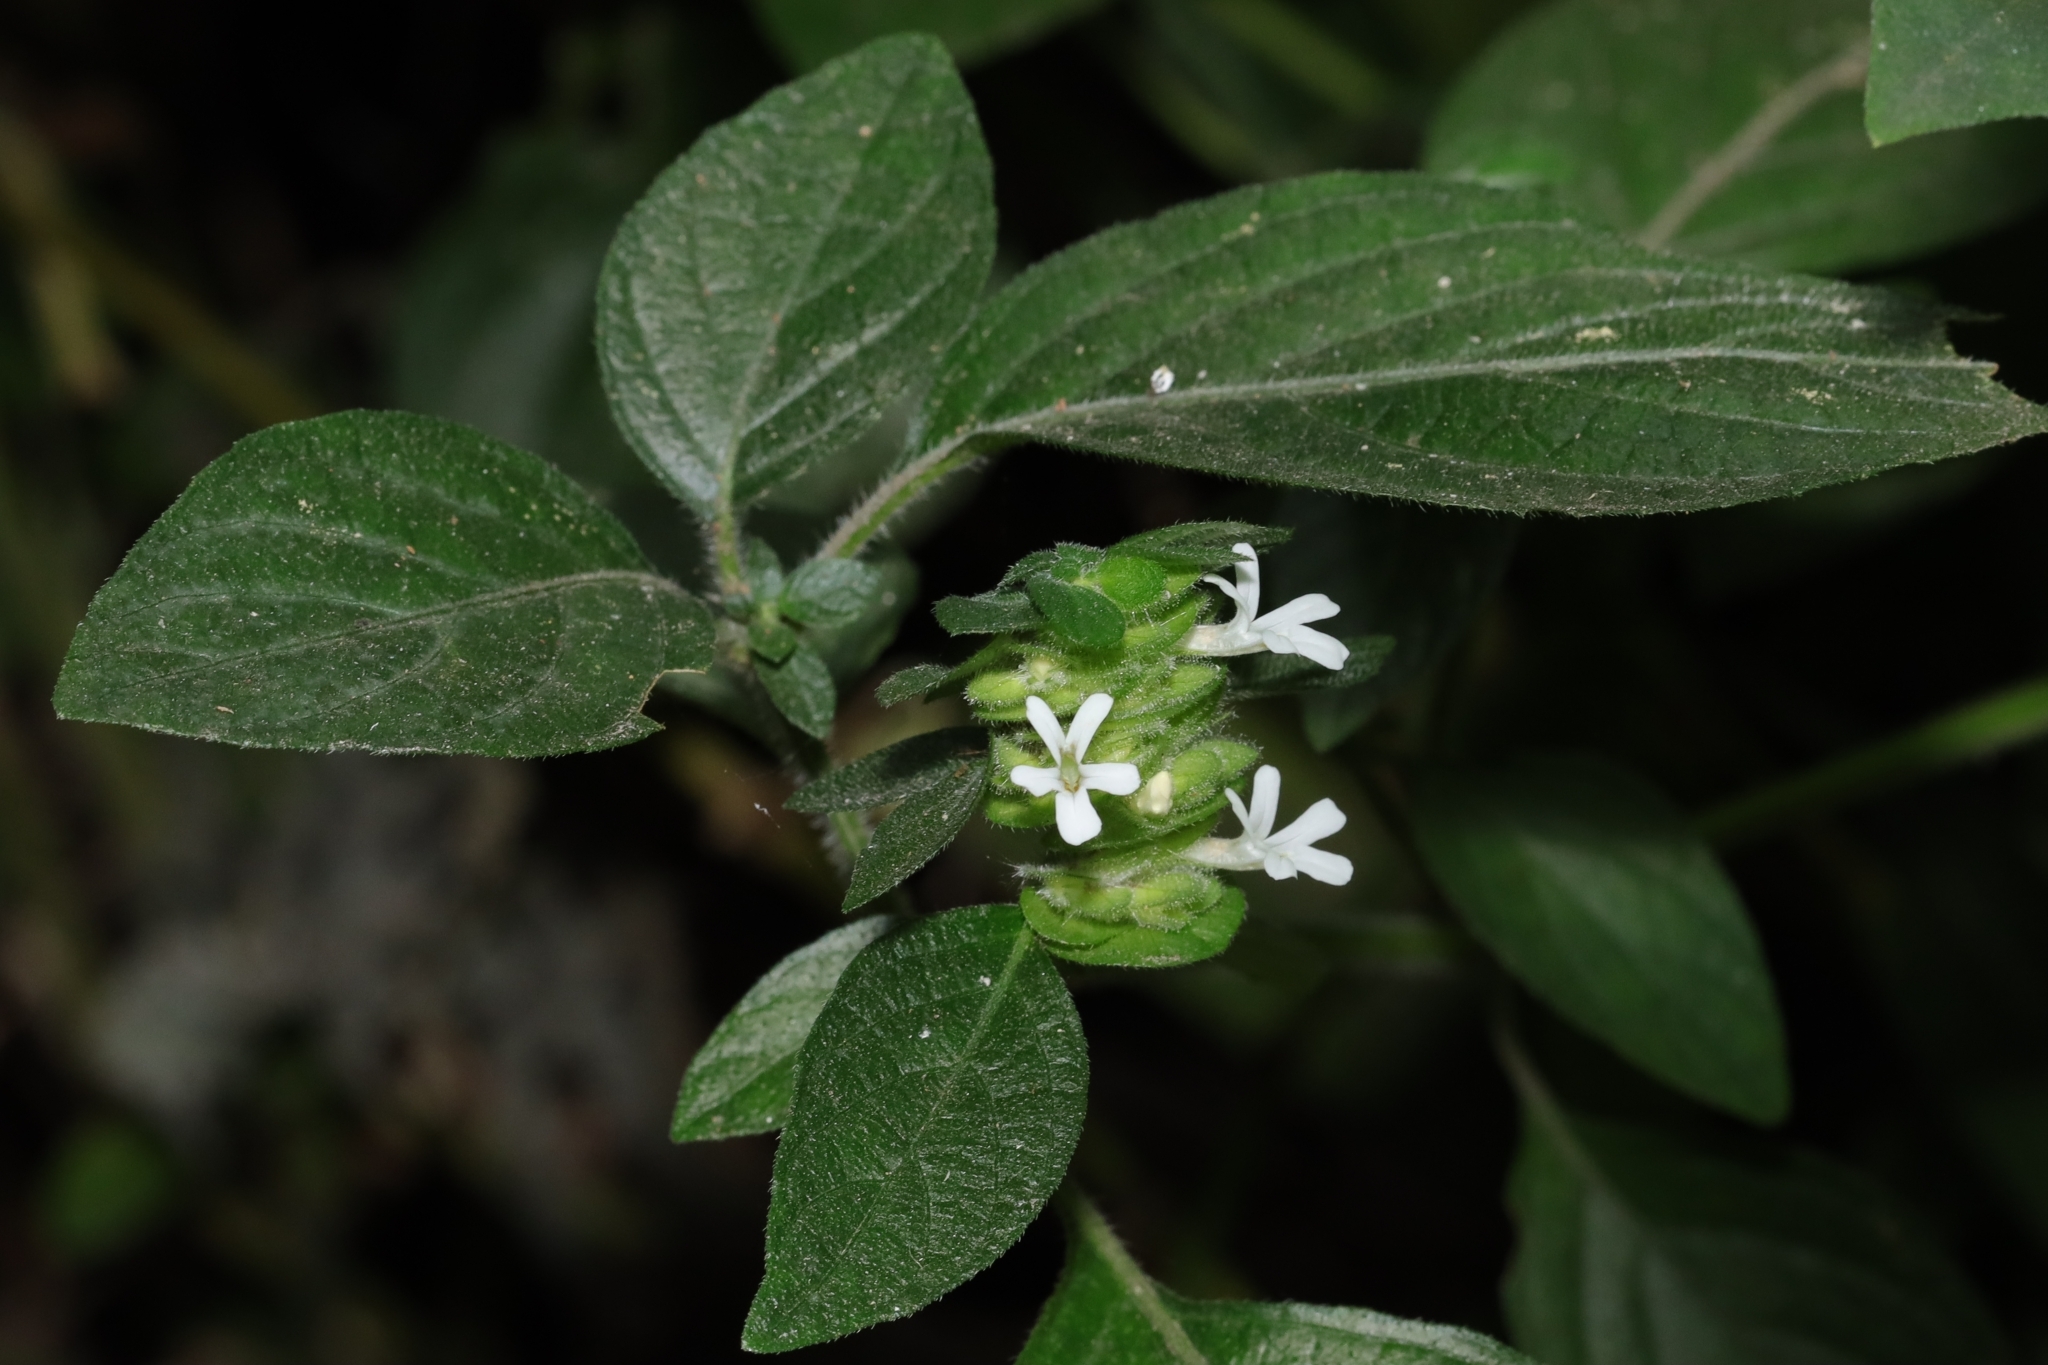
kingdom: Plantae
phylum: Tracheophyta
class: Magnoliopsida
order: Lamiales
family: Acanthaceae
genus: Phaulopsis
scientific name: Phaulopsis imbricata
